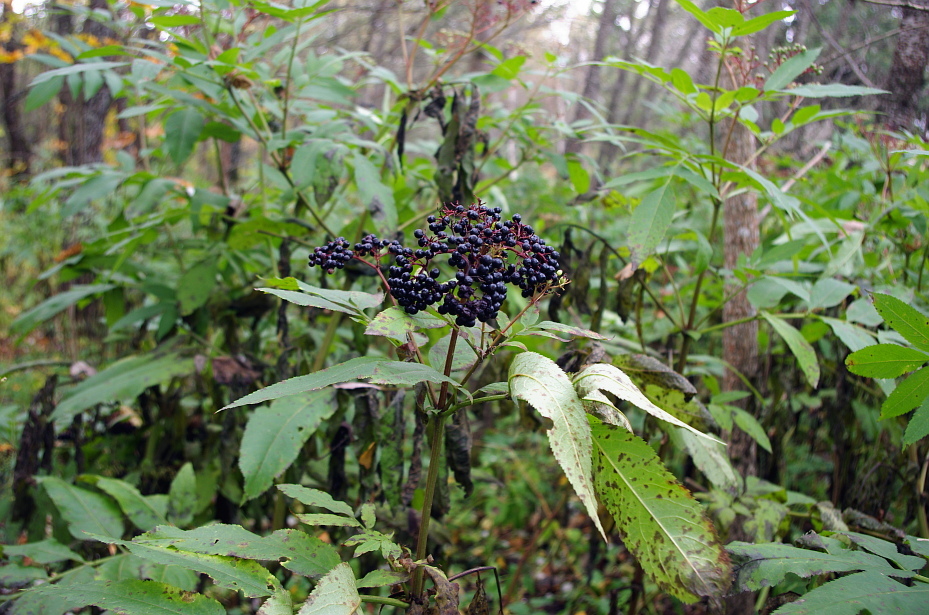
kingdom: Plantae
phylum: Tracheophyta
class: Magnoliopsida
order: Dipsacales
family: Viburnaceae
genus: Sambucus
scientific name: Sambucus ebulus
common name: Dwarf elder
